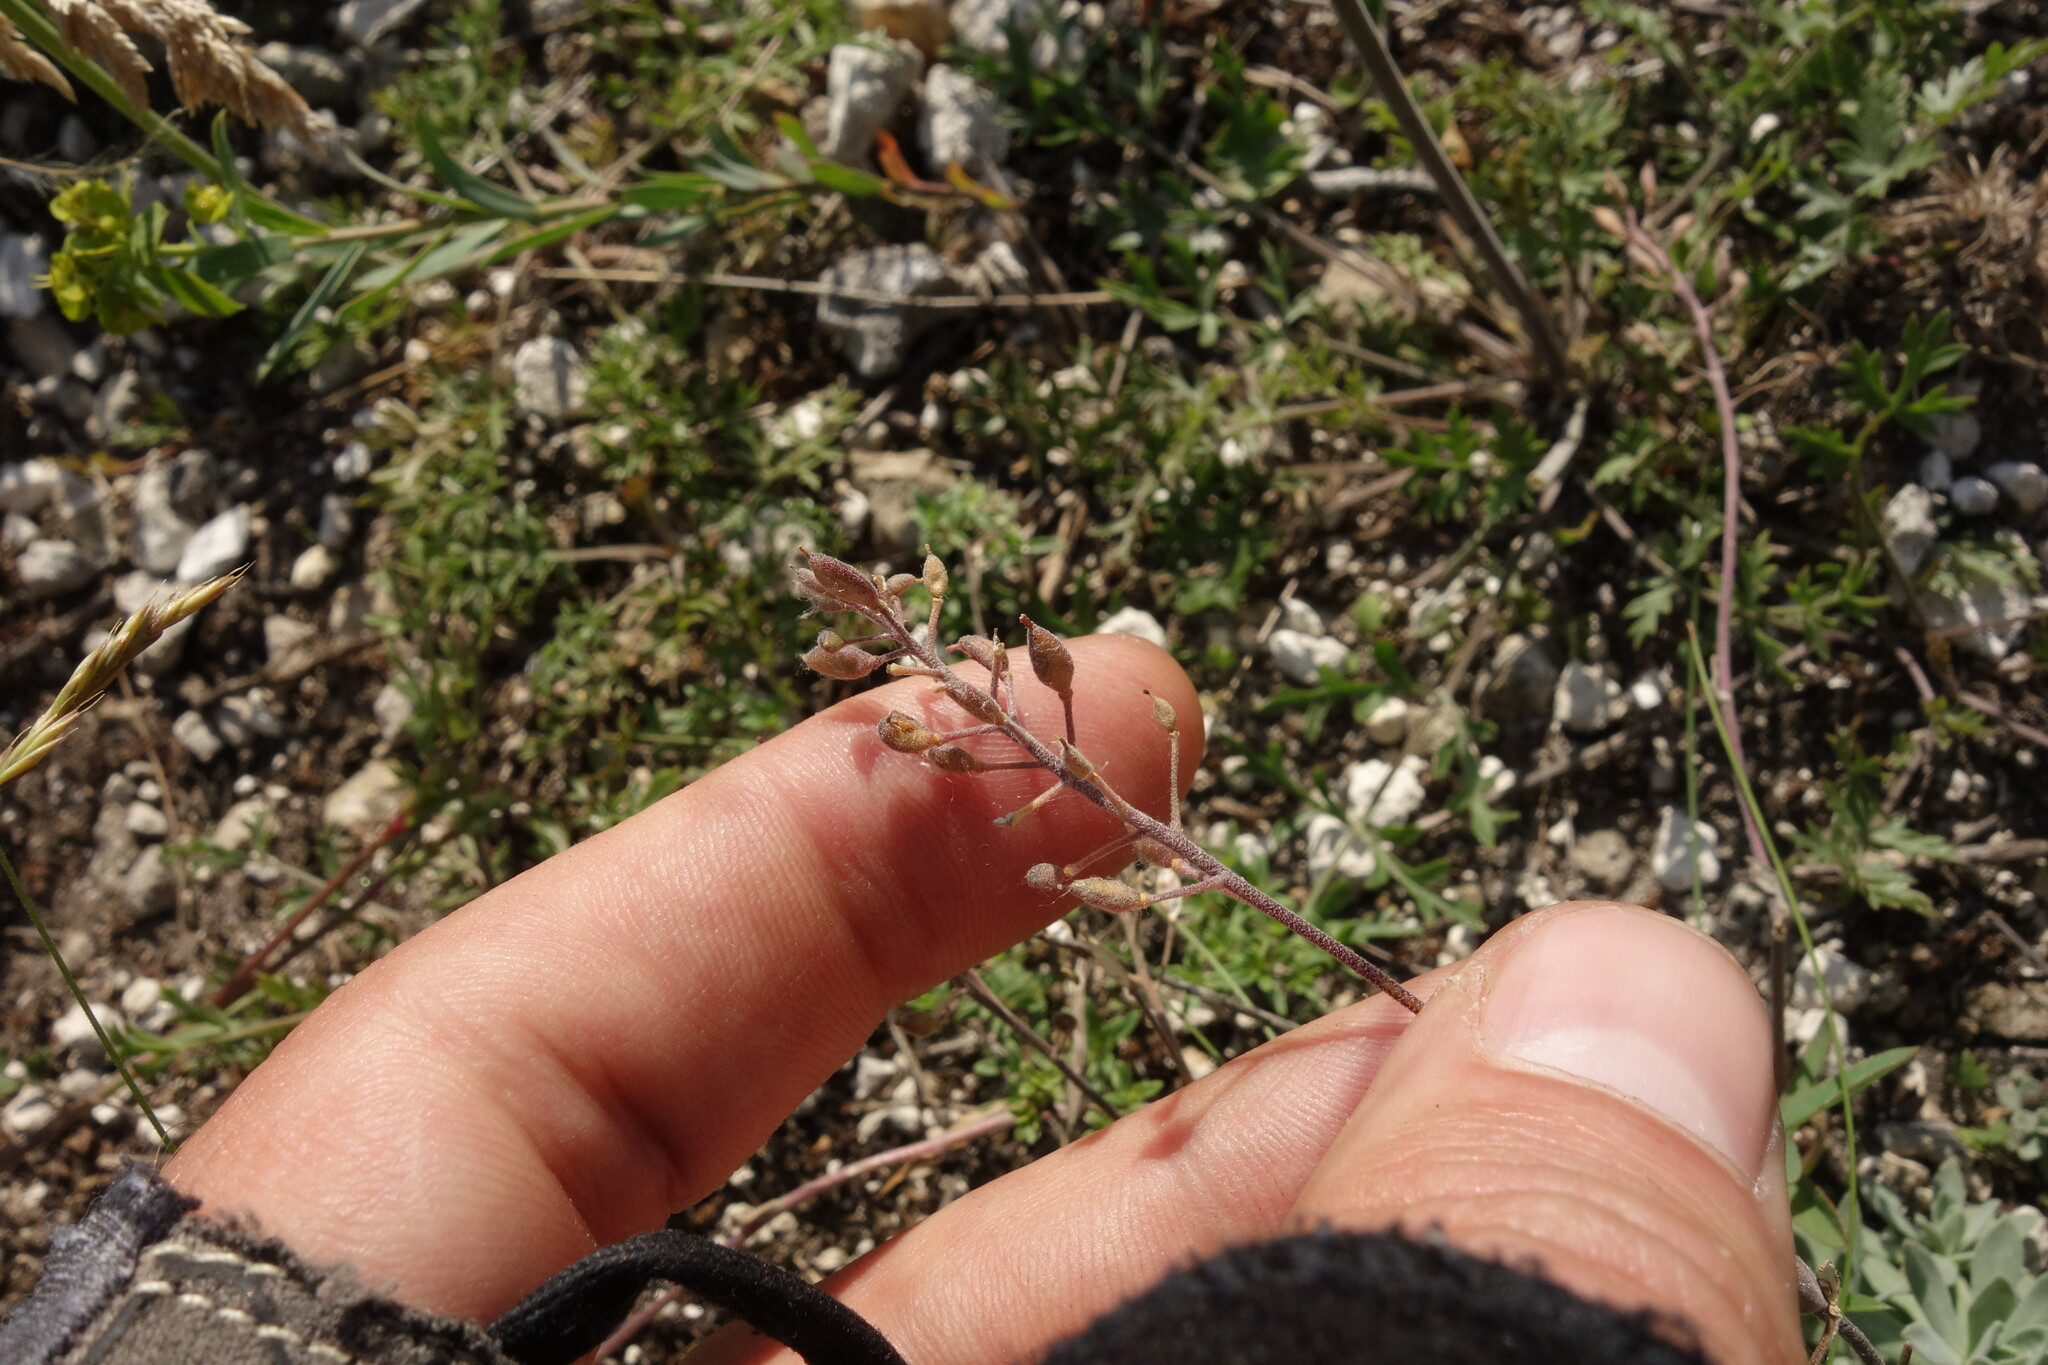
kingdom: Plantae
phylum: Tracheophyta
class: Magnoliopsida
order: Brassicales
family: Brassicaceae
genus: Draba
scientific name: Draba hyperborea
